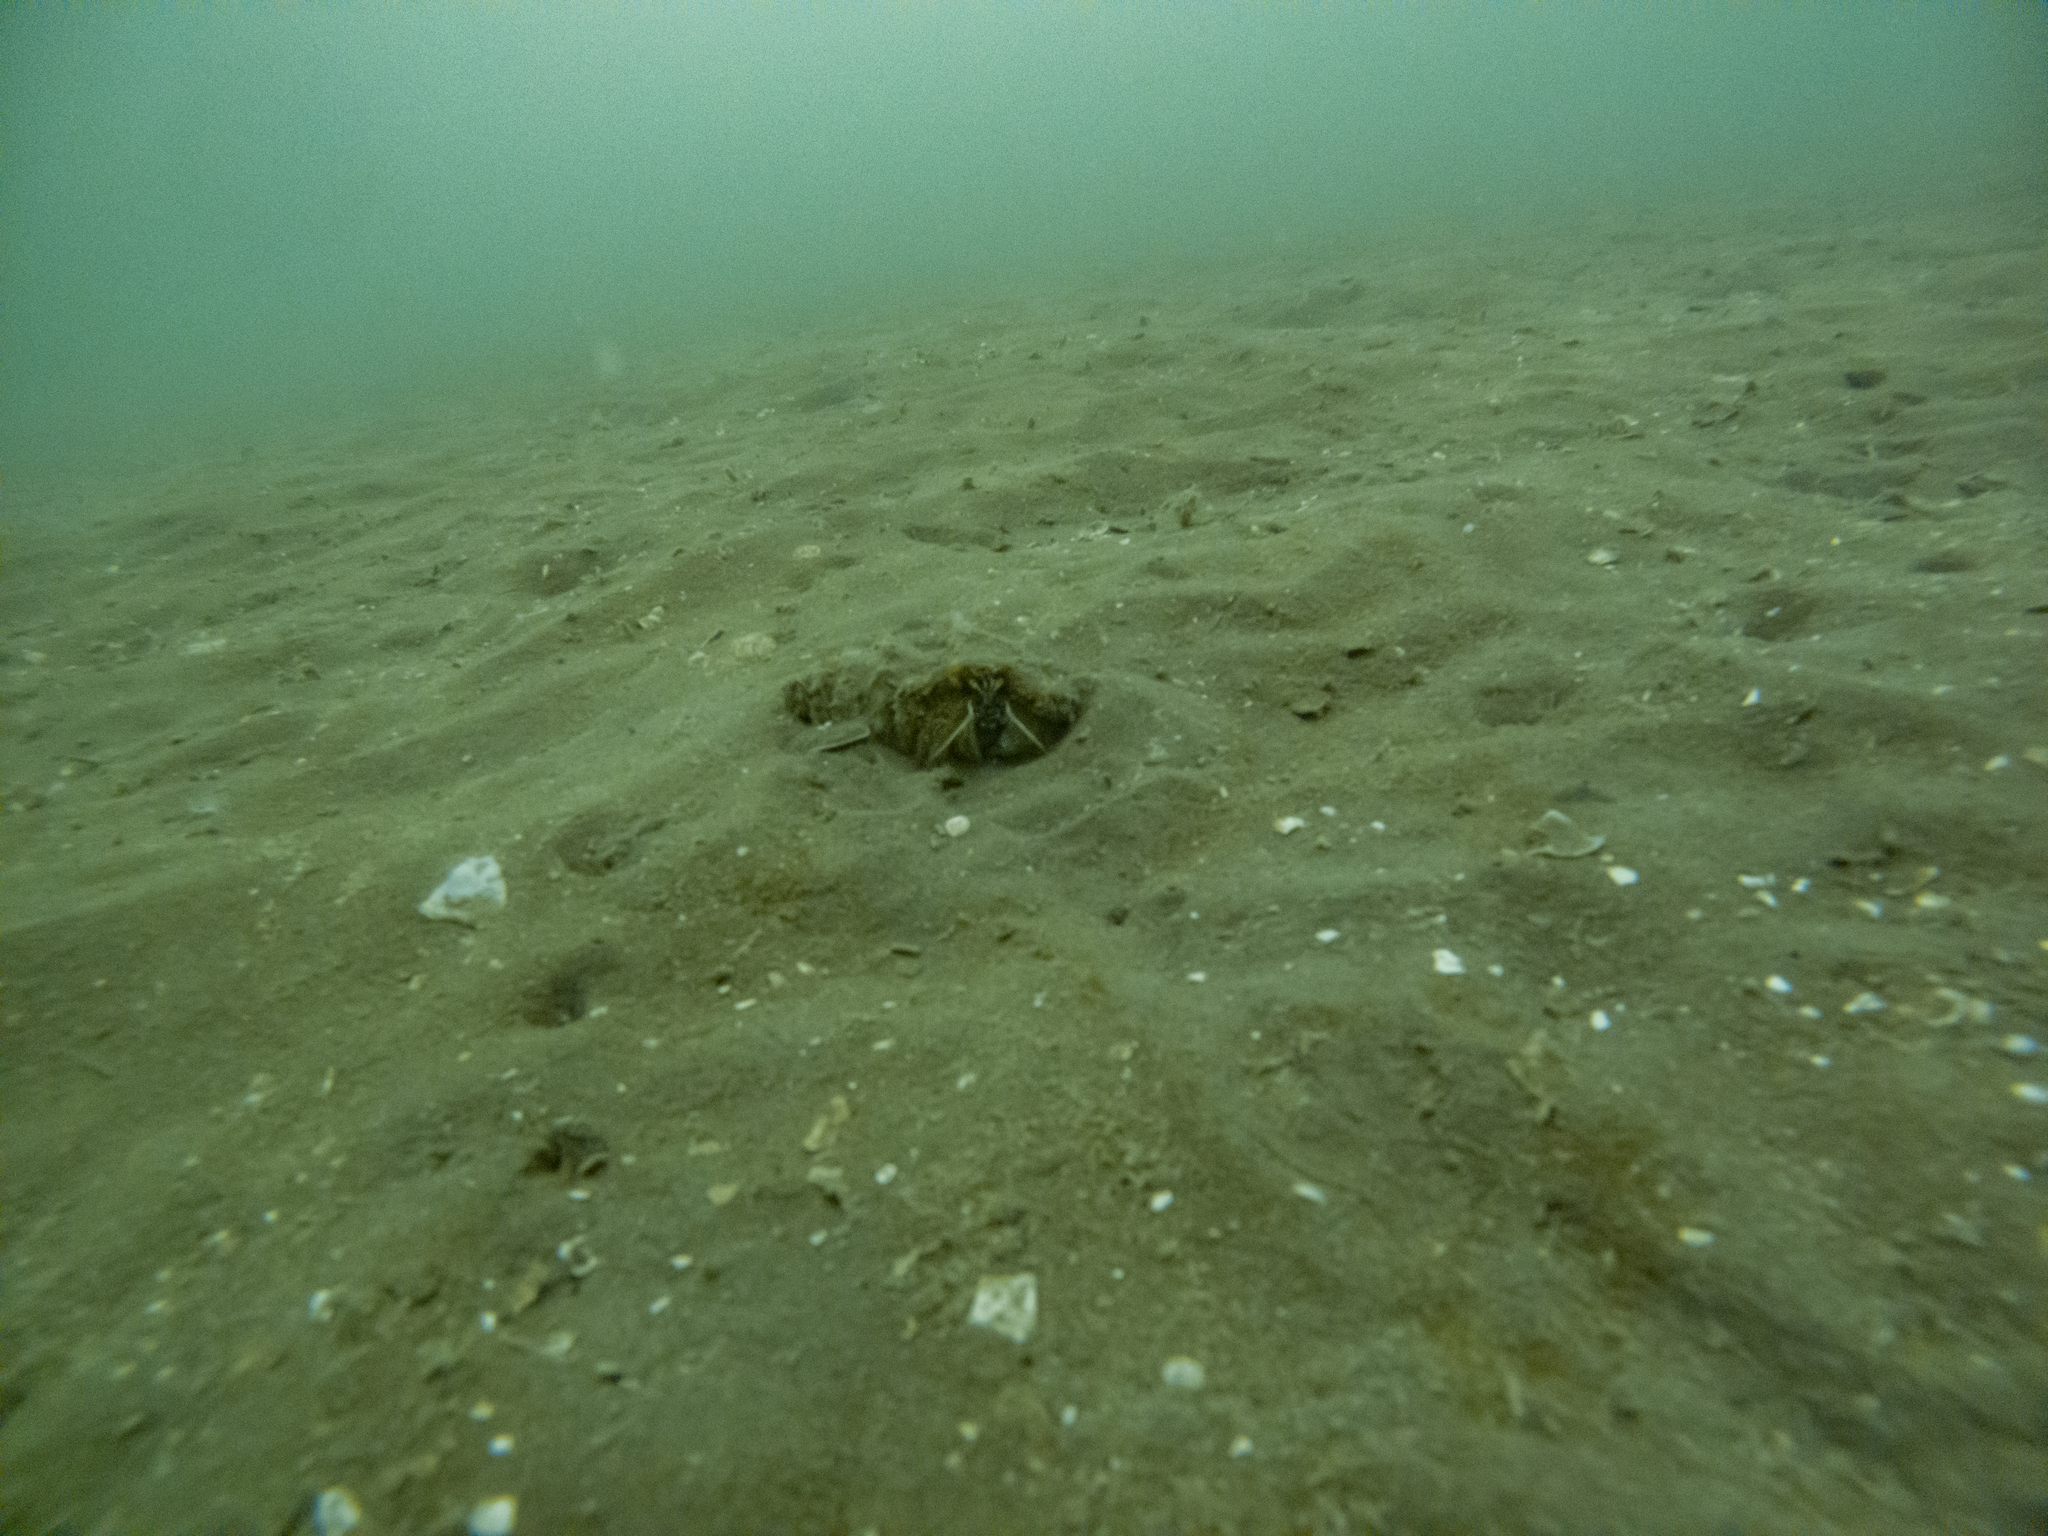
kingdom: Animalia
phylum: Arthropoda
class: Malacostraca
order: Decapoda
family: Diogenidae
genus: Areopaguristes
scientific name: Areopaguristes setosus
